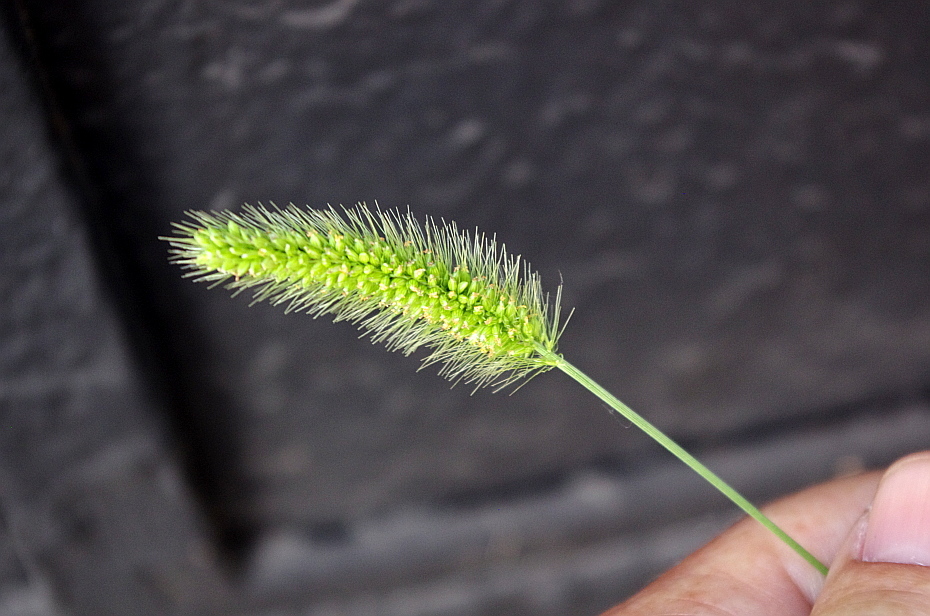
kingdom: Plantae
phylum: Tracheophyta
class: Liliopsida
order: Poales
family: Poaceae
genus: Setaria
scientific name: Setaria viridis
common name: Green bristlegrass
